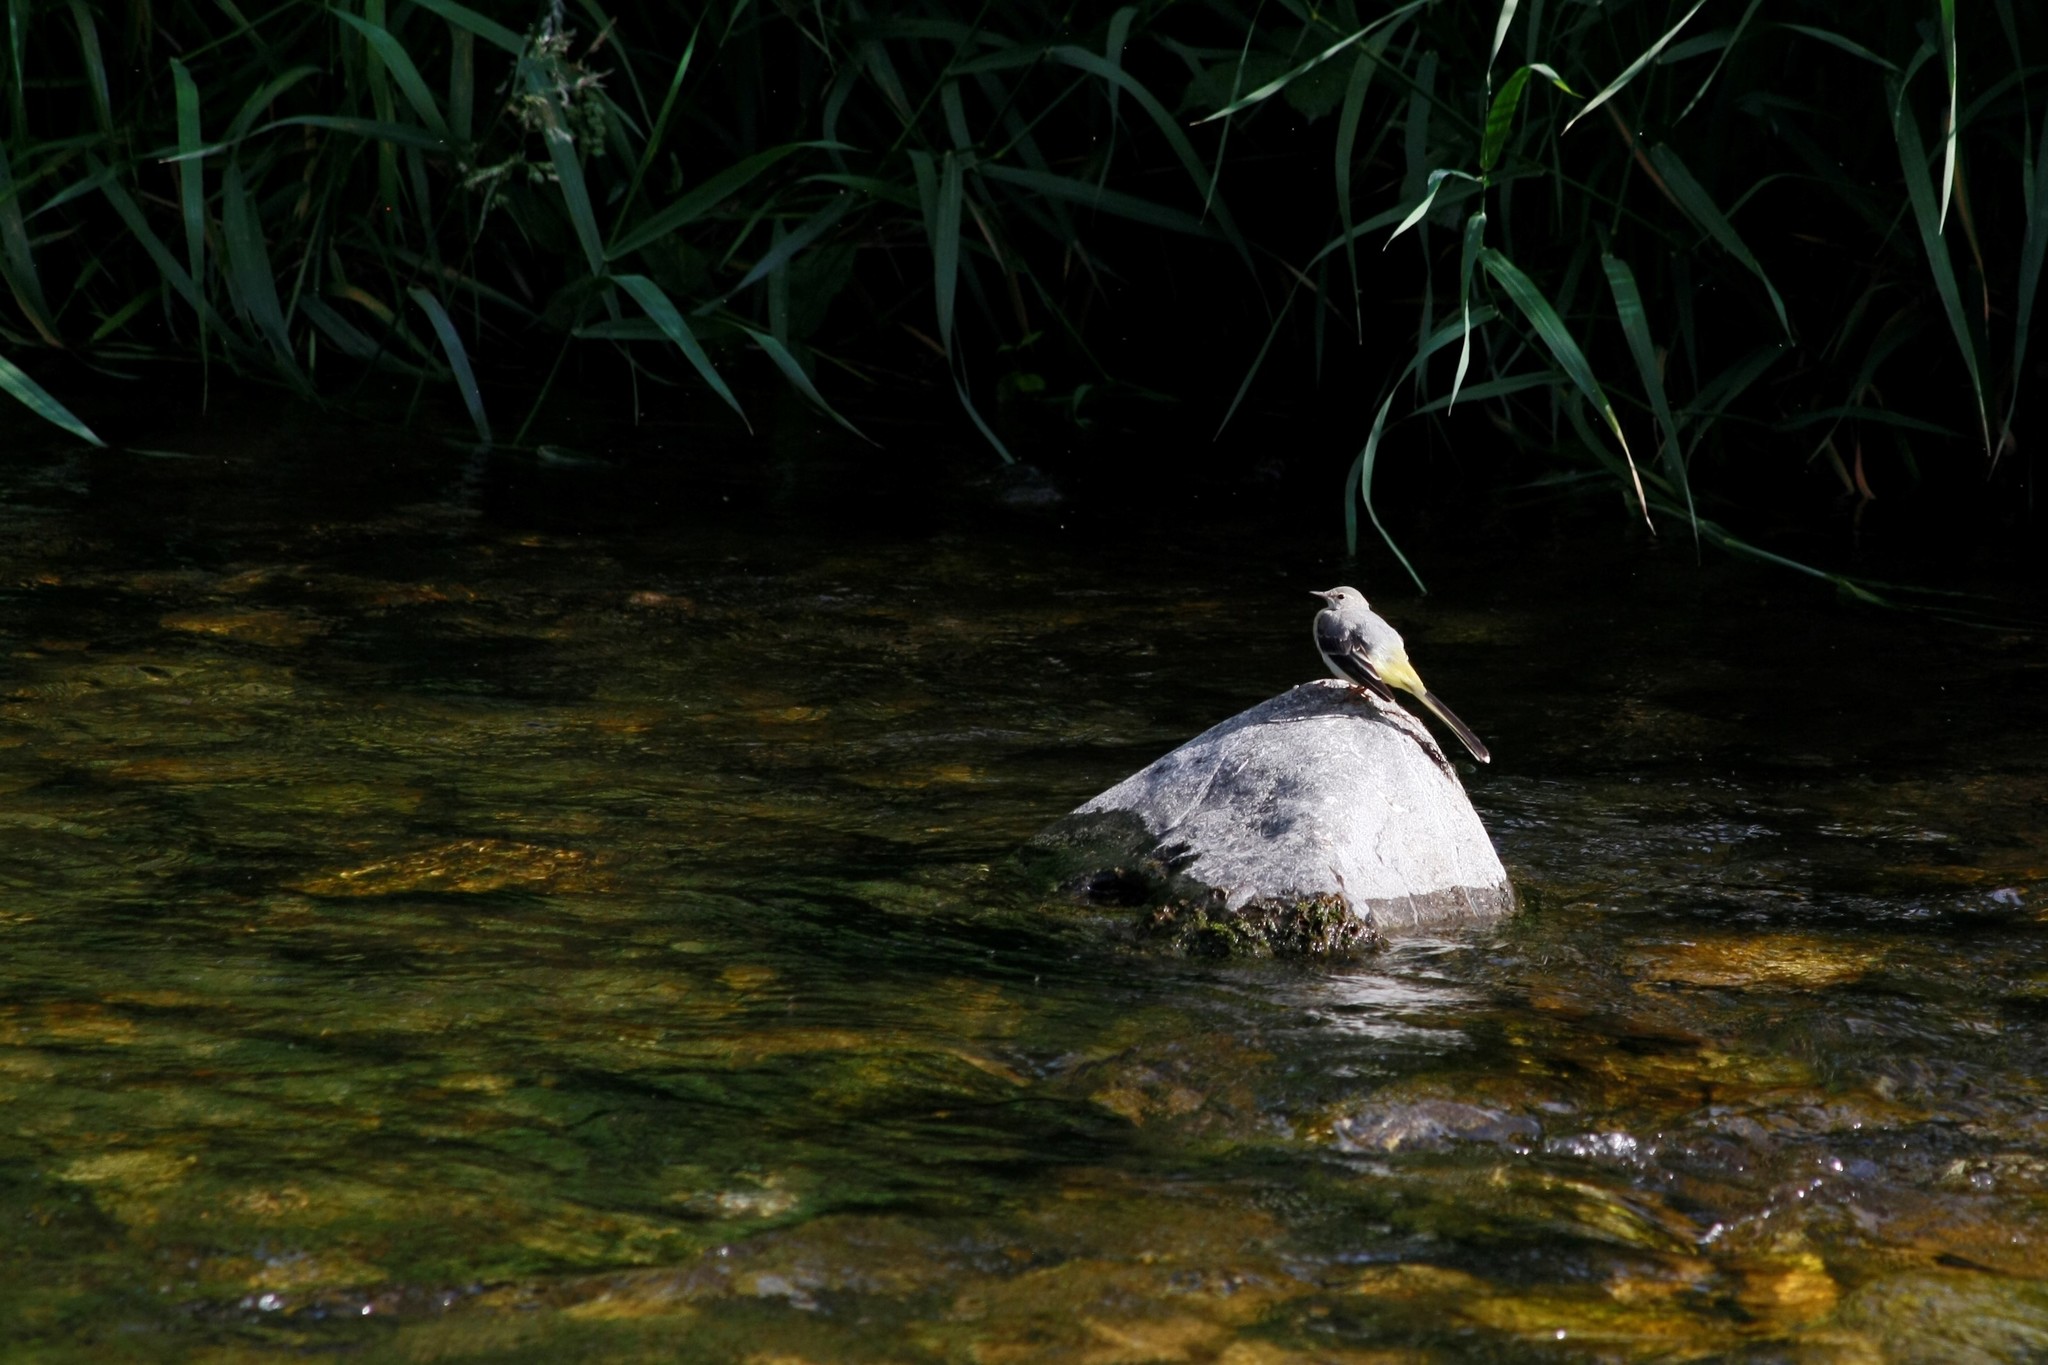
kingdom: Animalia
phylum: Chordata
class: Aves
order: Passeriformes
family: Motacillidae
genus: Motacilla
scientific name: Motacilla cinerea
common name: Grey wagtail
